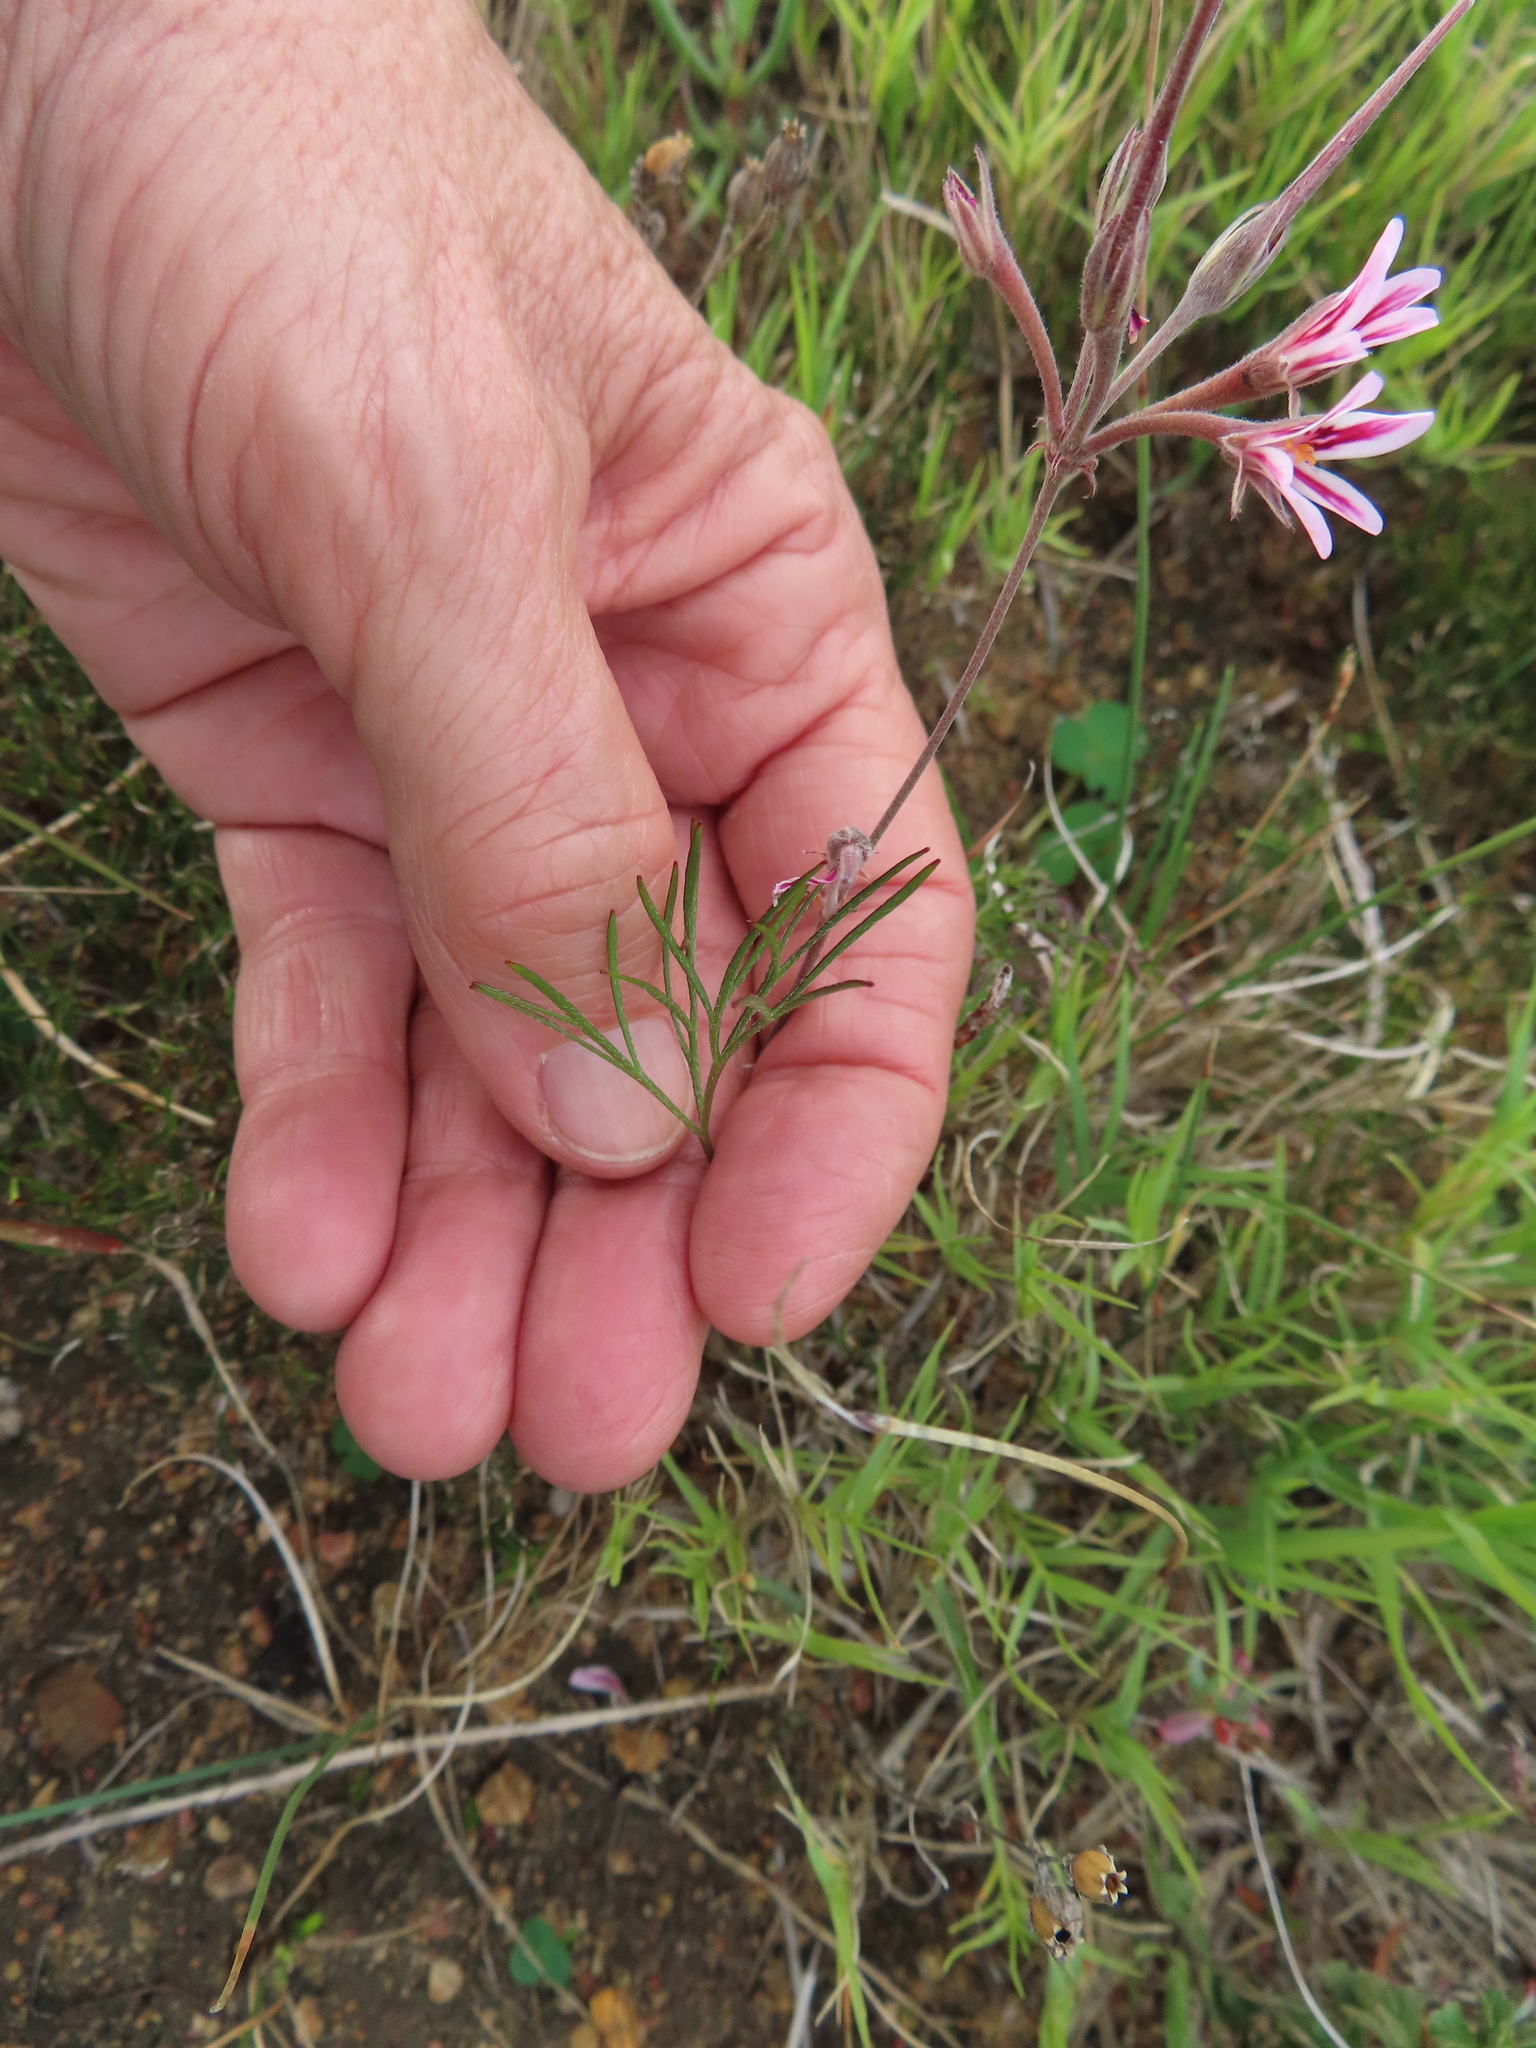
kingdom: Plantae
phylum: Tracheophyta
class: Magnoliopsida
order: Geraniales
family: Geraniaceae
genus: Pelargonium
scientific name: Pelargonium proliferum
